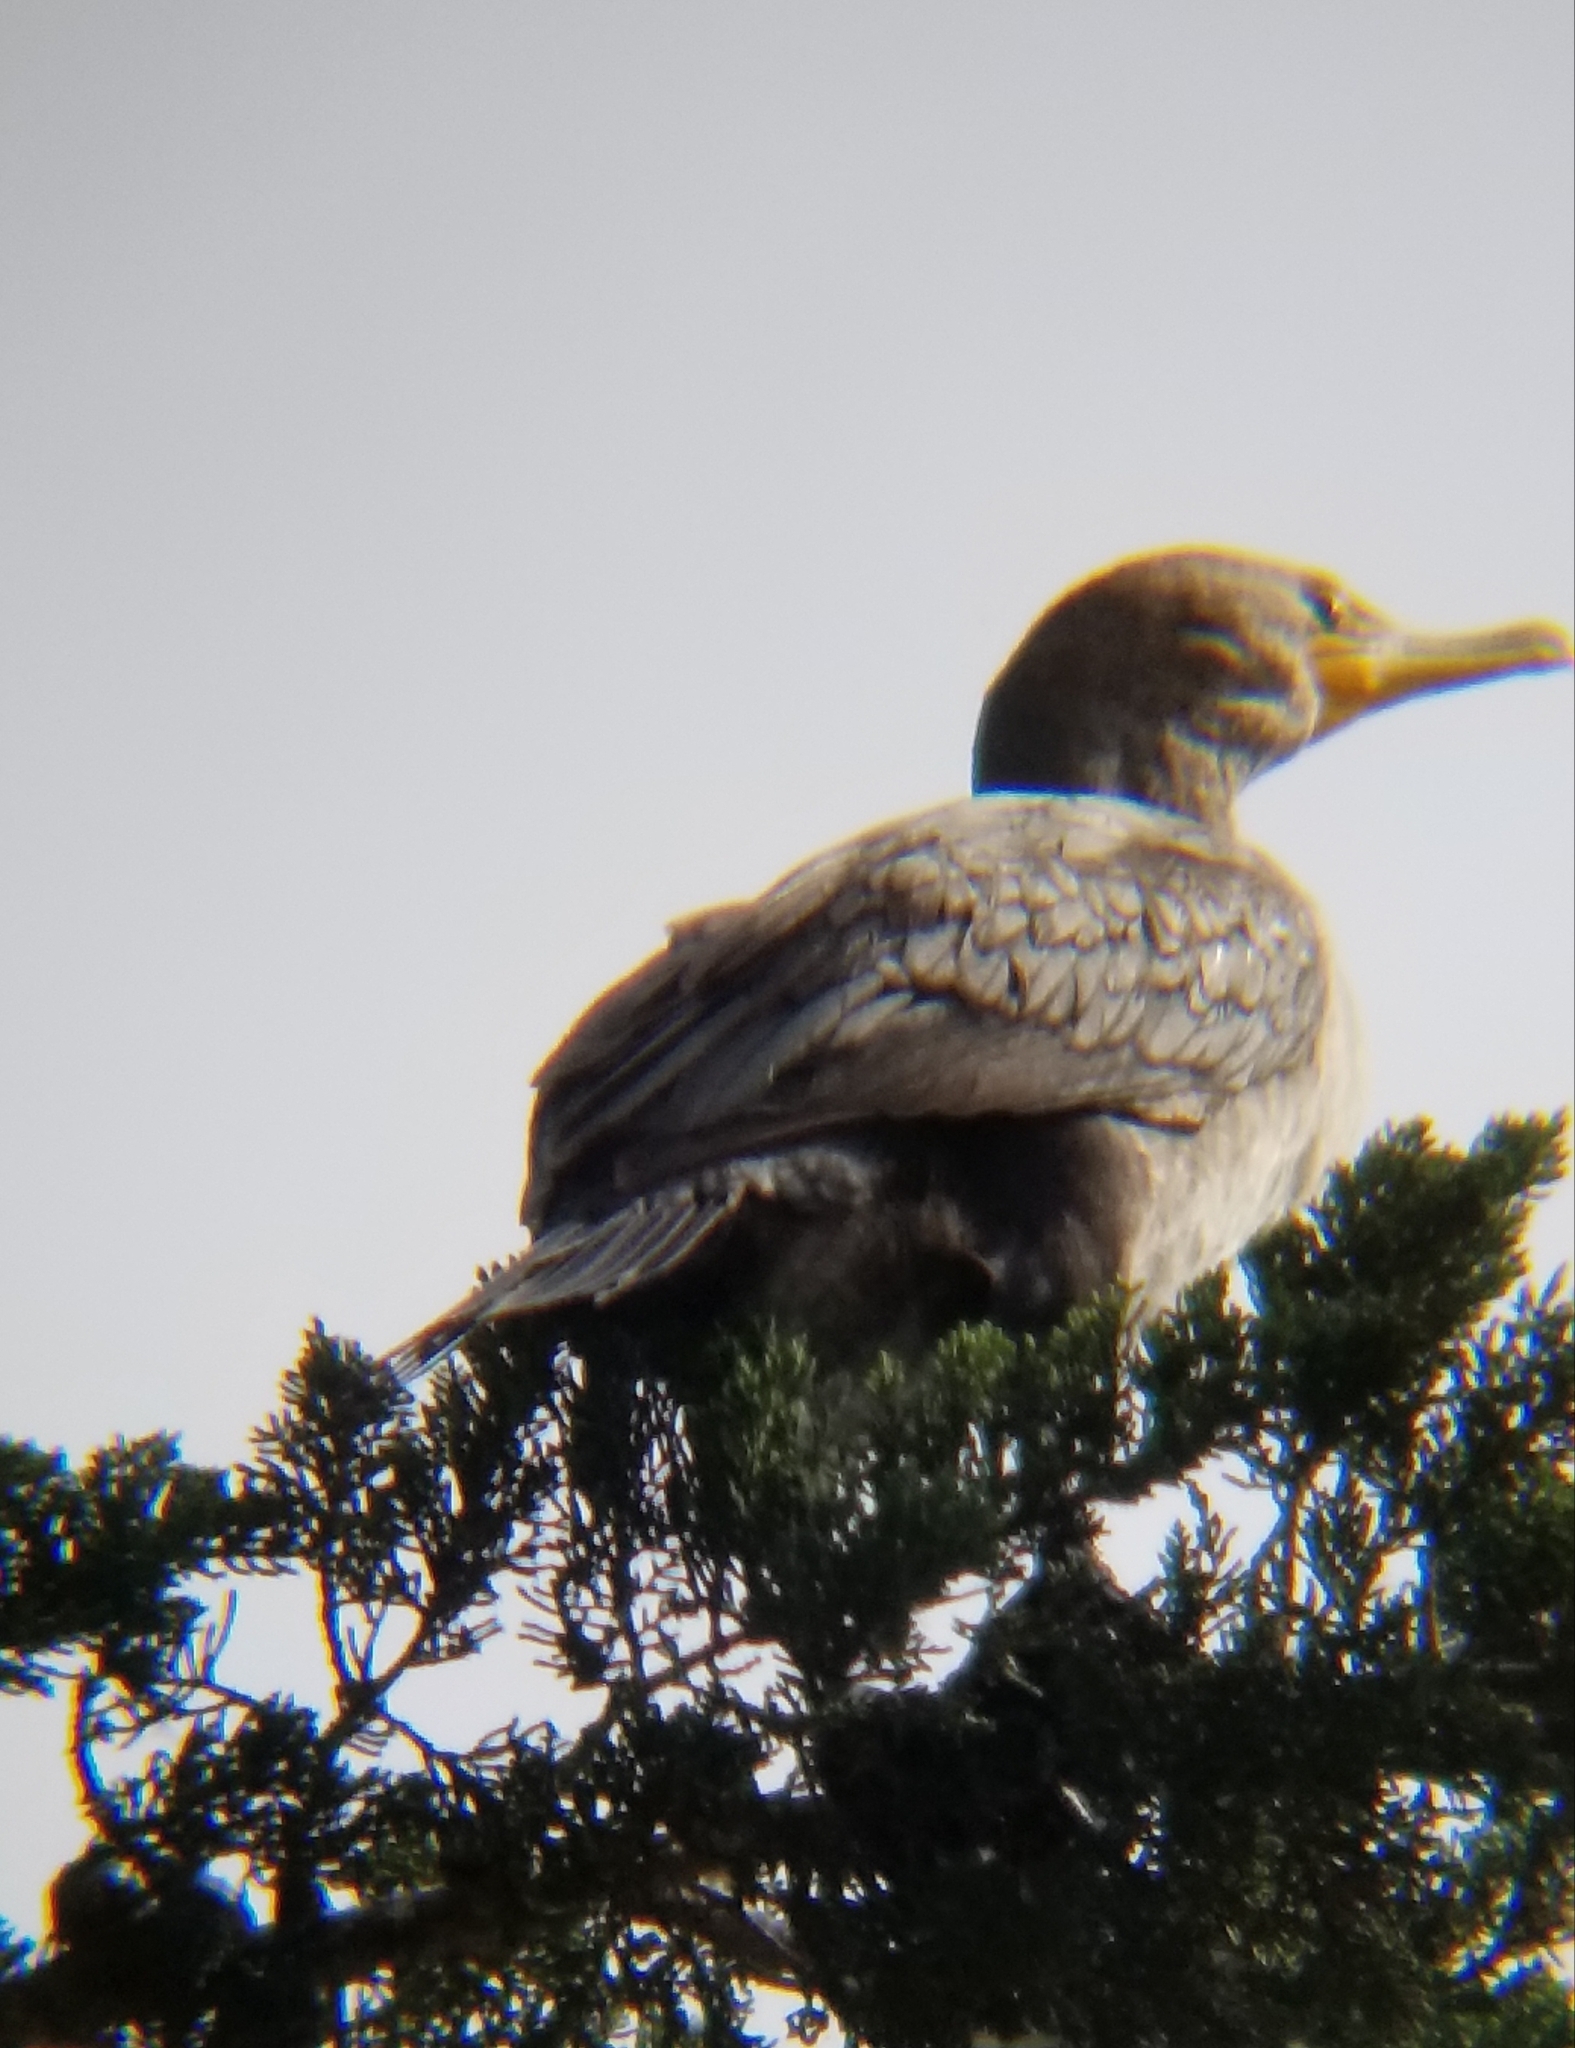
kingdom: Animalia
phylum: Chordata
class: Aves
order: Suliformes
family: Phalacrocoracidae
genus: Phalacrocorax
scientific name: Phalacrocorax auritus
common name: Double-crested cormorant
